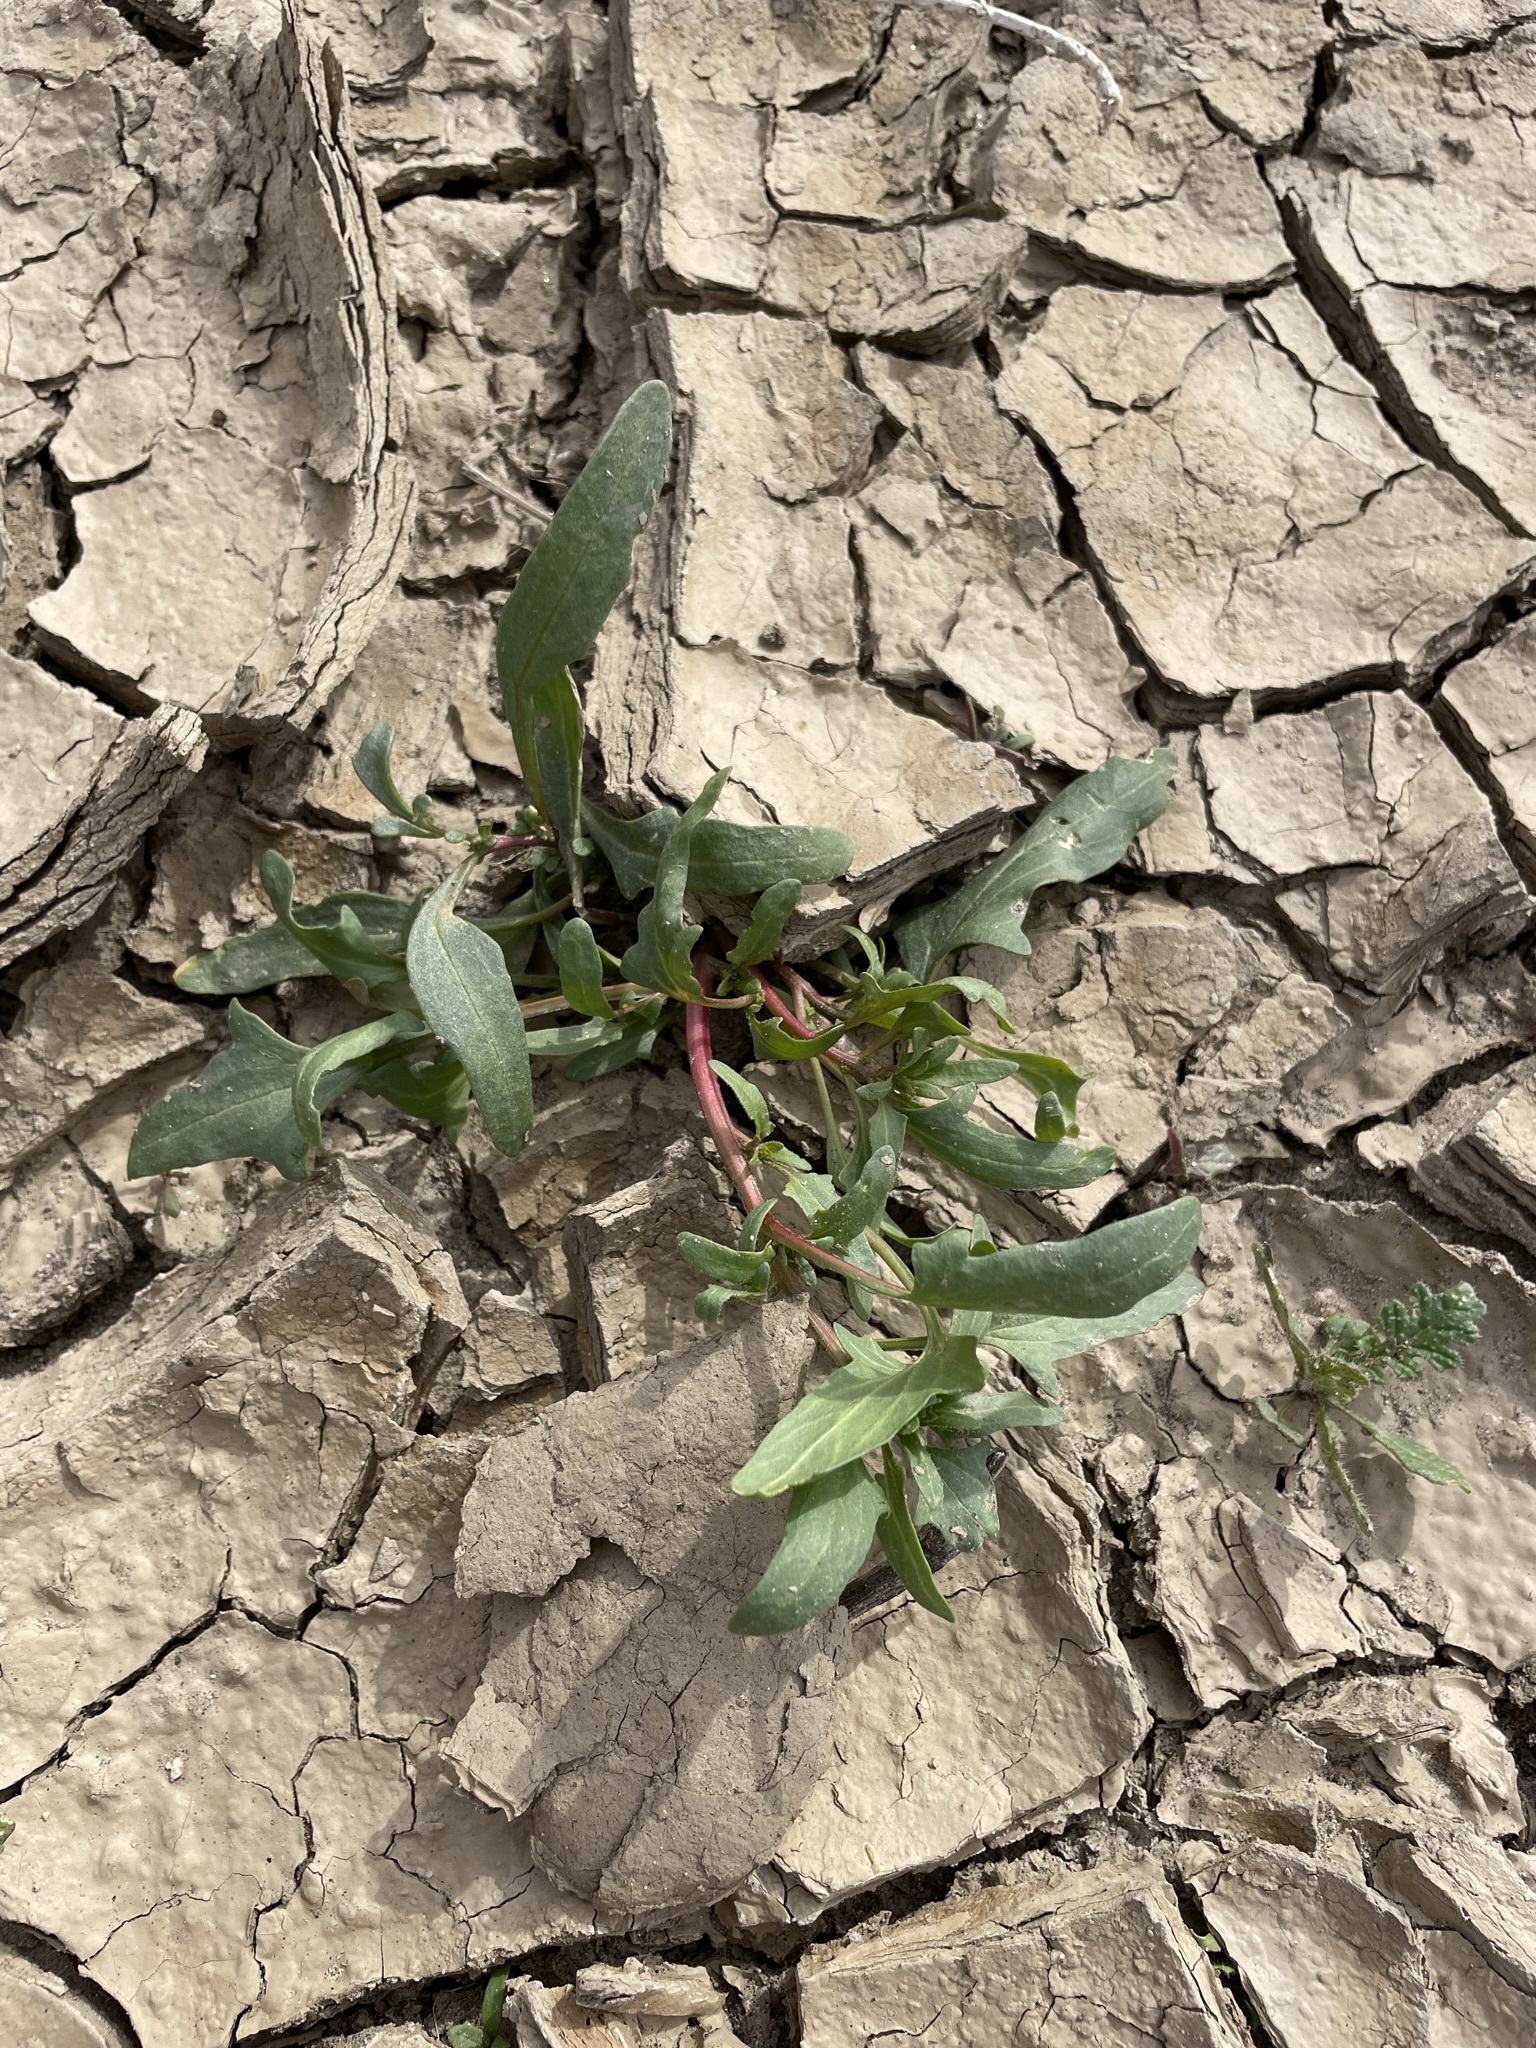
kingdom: Plantae
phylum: Tracheophyta
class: Magnoliopsida
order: Caryophyllales
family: Amaranthaceae
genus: Blitum
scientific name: Blitum nuttallianum
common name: Poverty-weed
